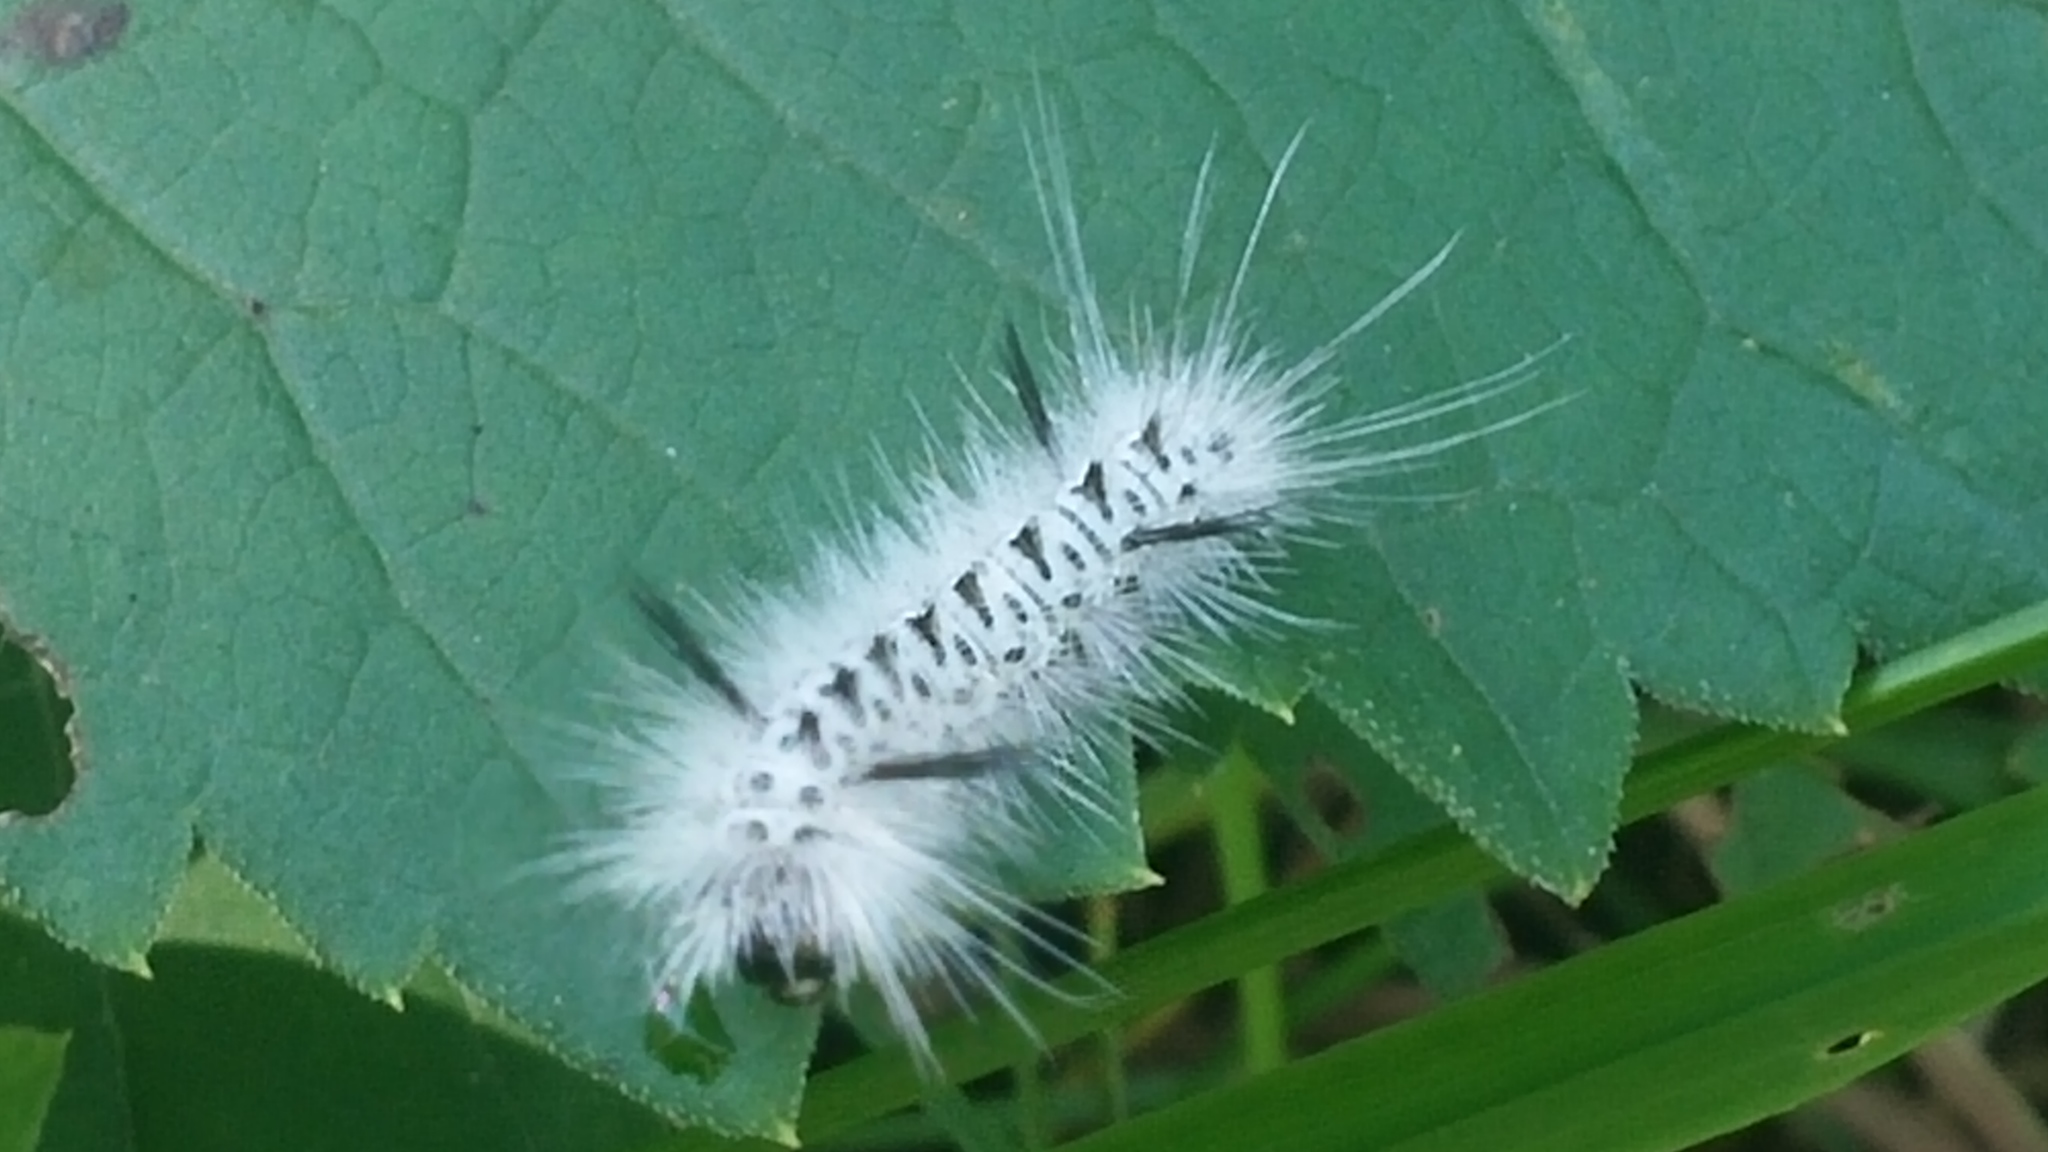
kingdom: Animalia
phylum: Arthropoda
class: Insecta
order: Lepidoptera
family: Erebidae
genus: Lophocampa
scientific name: Lophocampa caryae
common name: Hickory tussock moth
